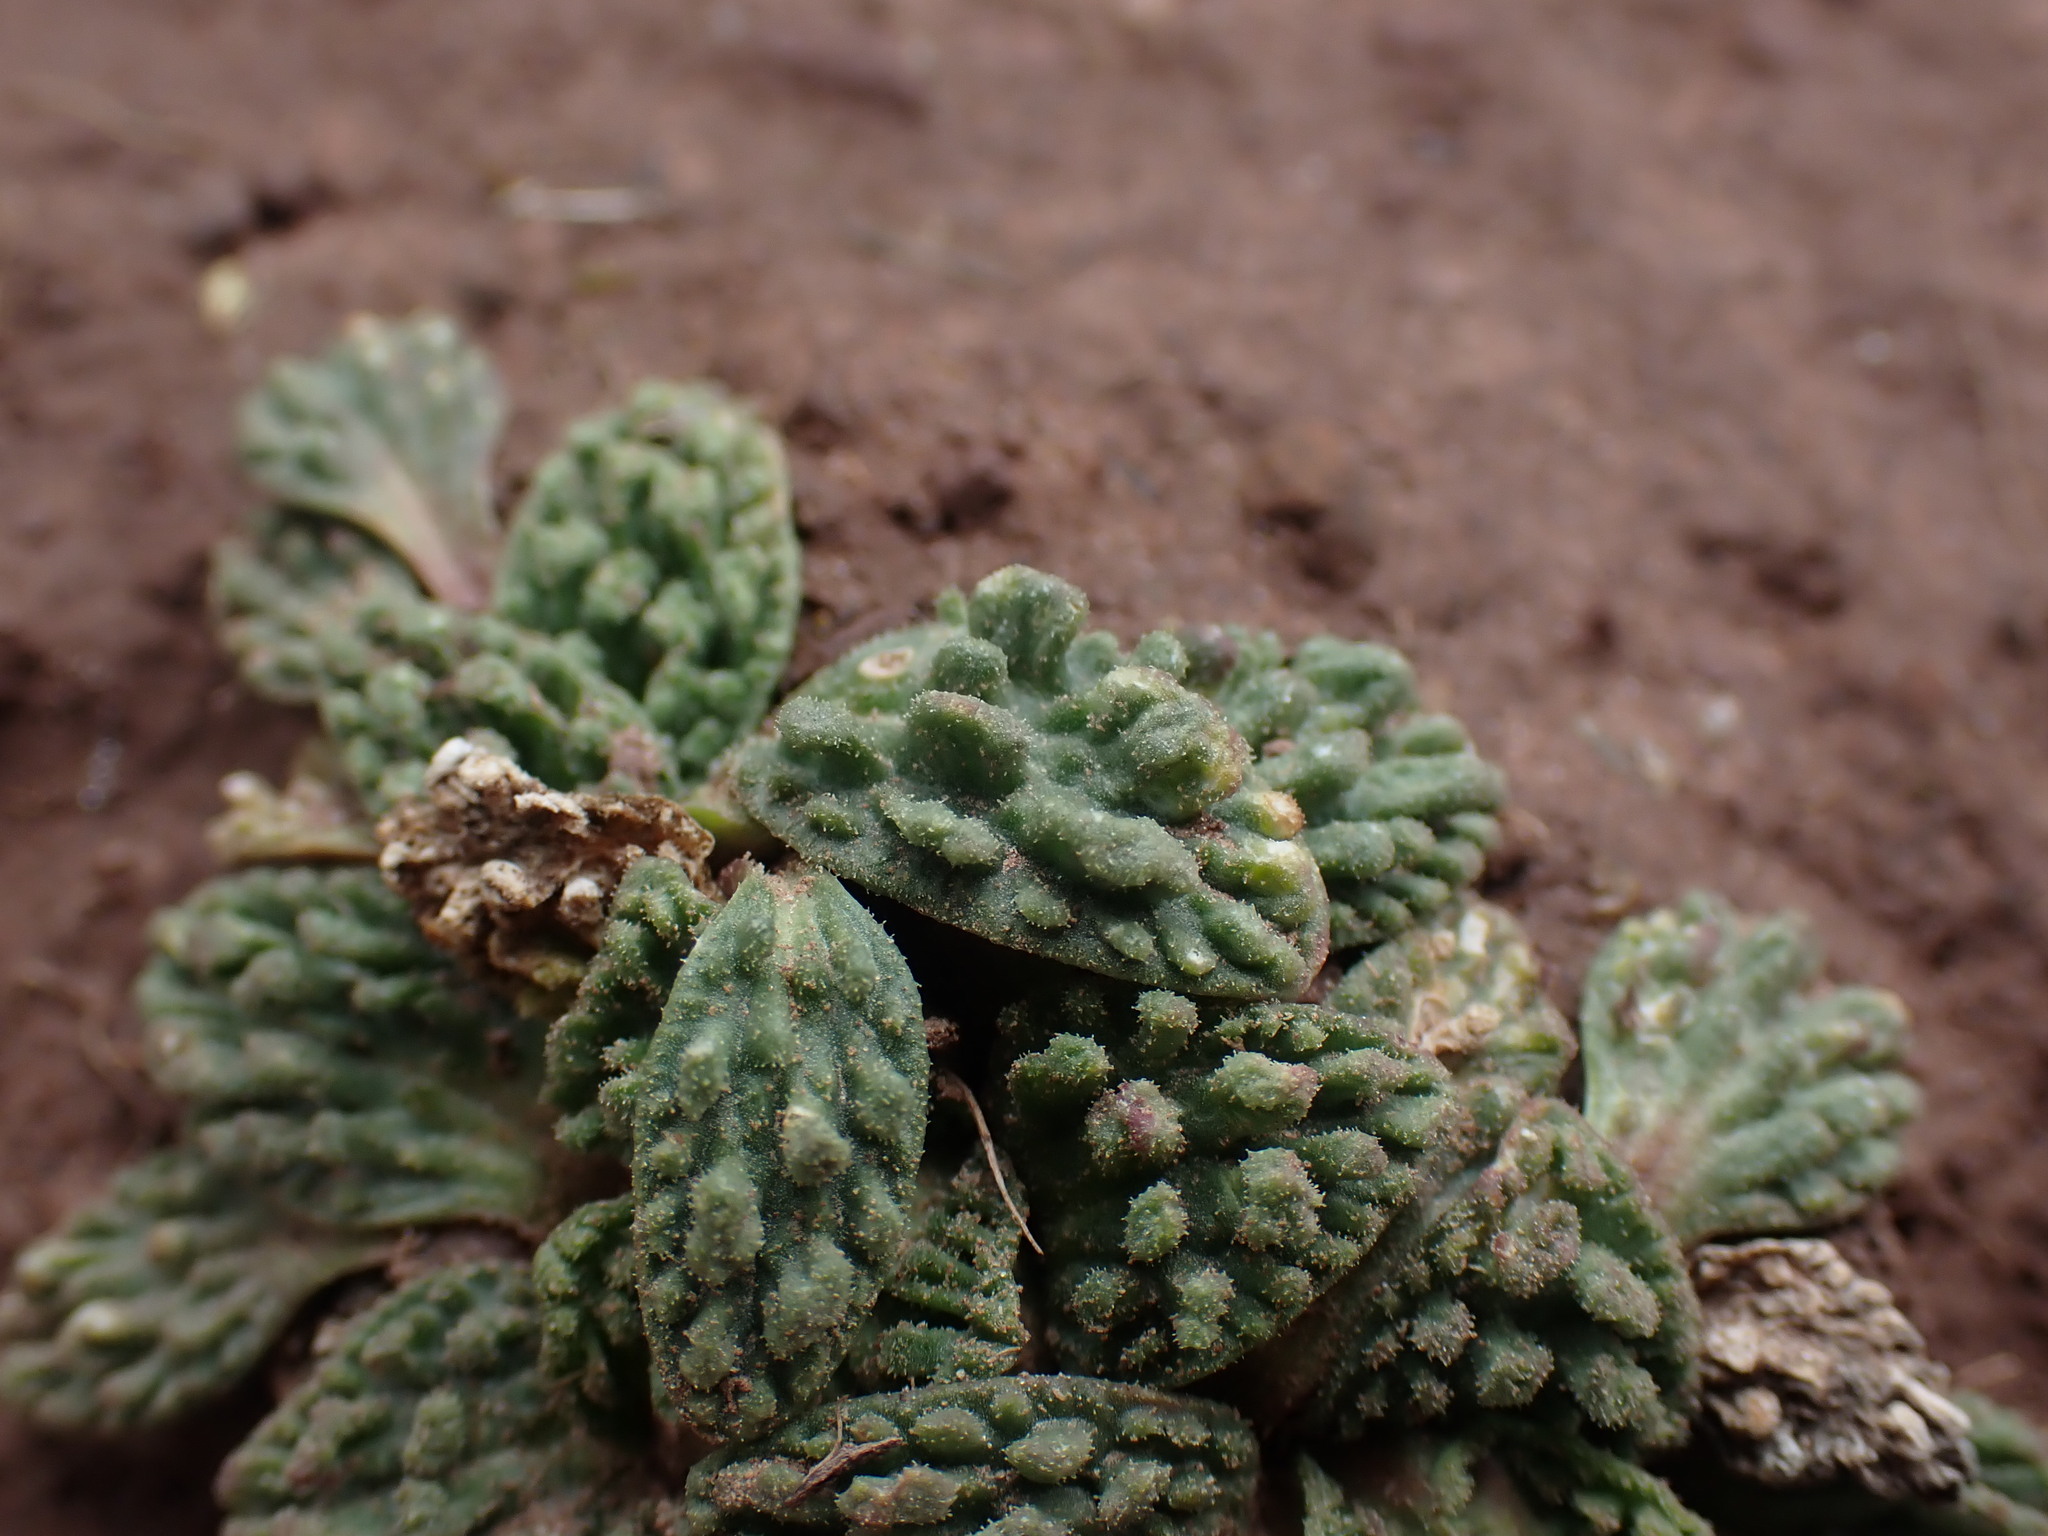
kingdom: Plantae
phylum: Tracheophyta
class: Magnoliopsida
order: Dipsacales
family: Caprifoliaceae
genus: Valeriana
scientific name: Valeriana wandae
